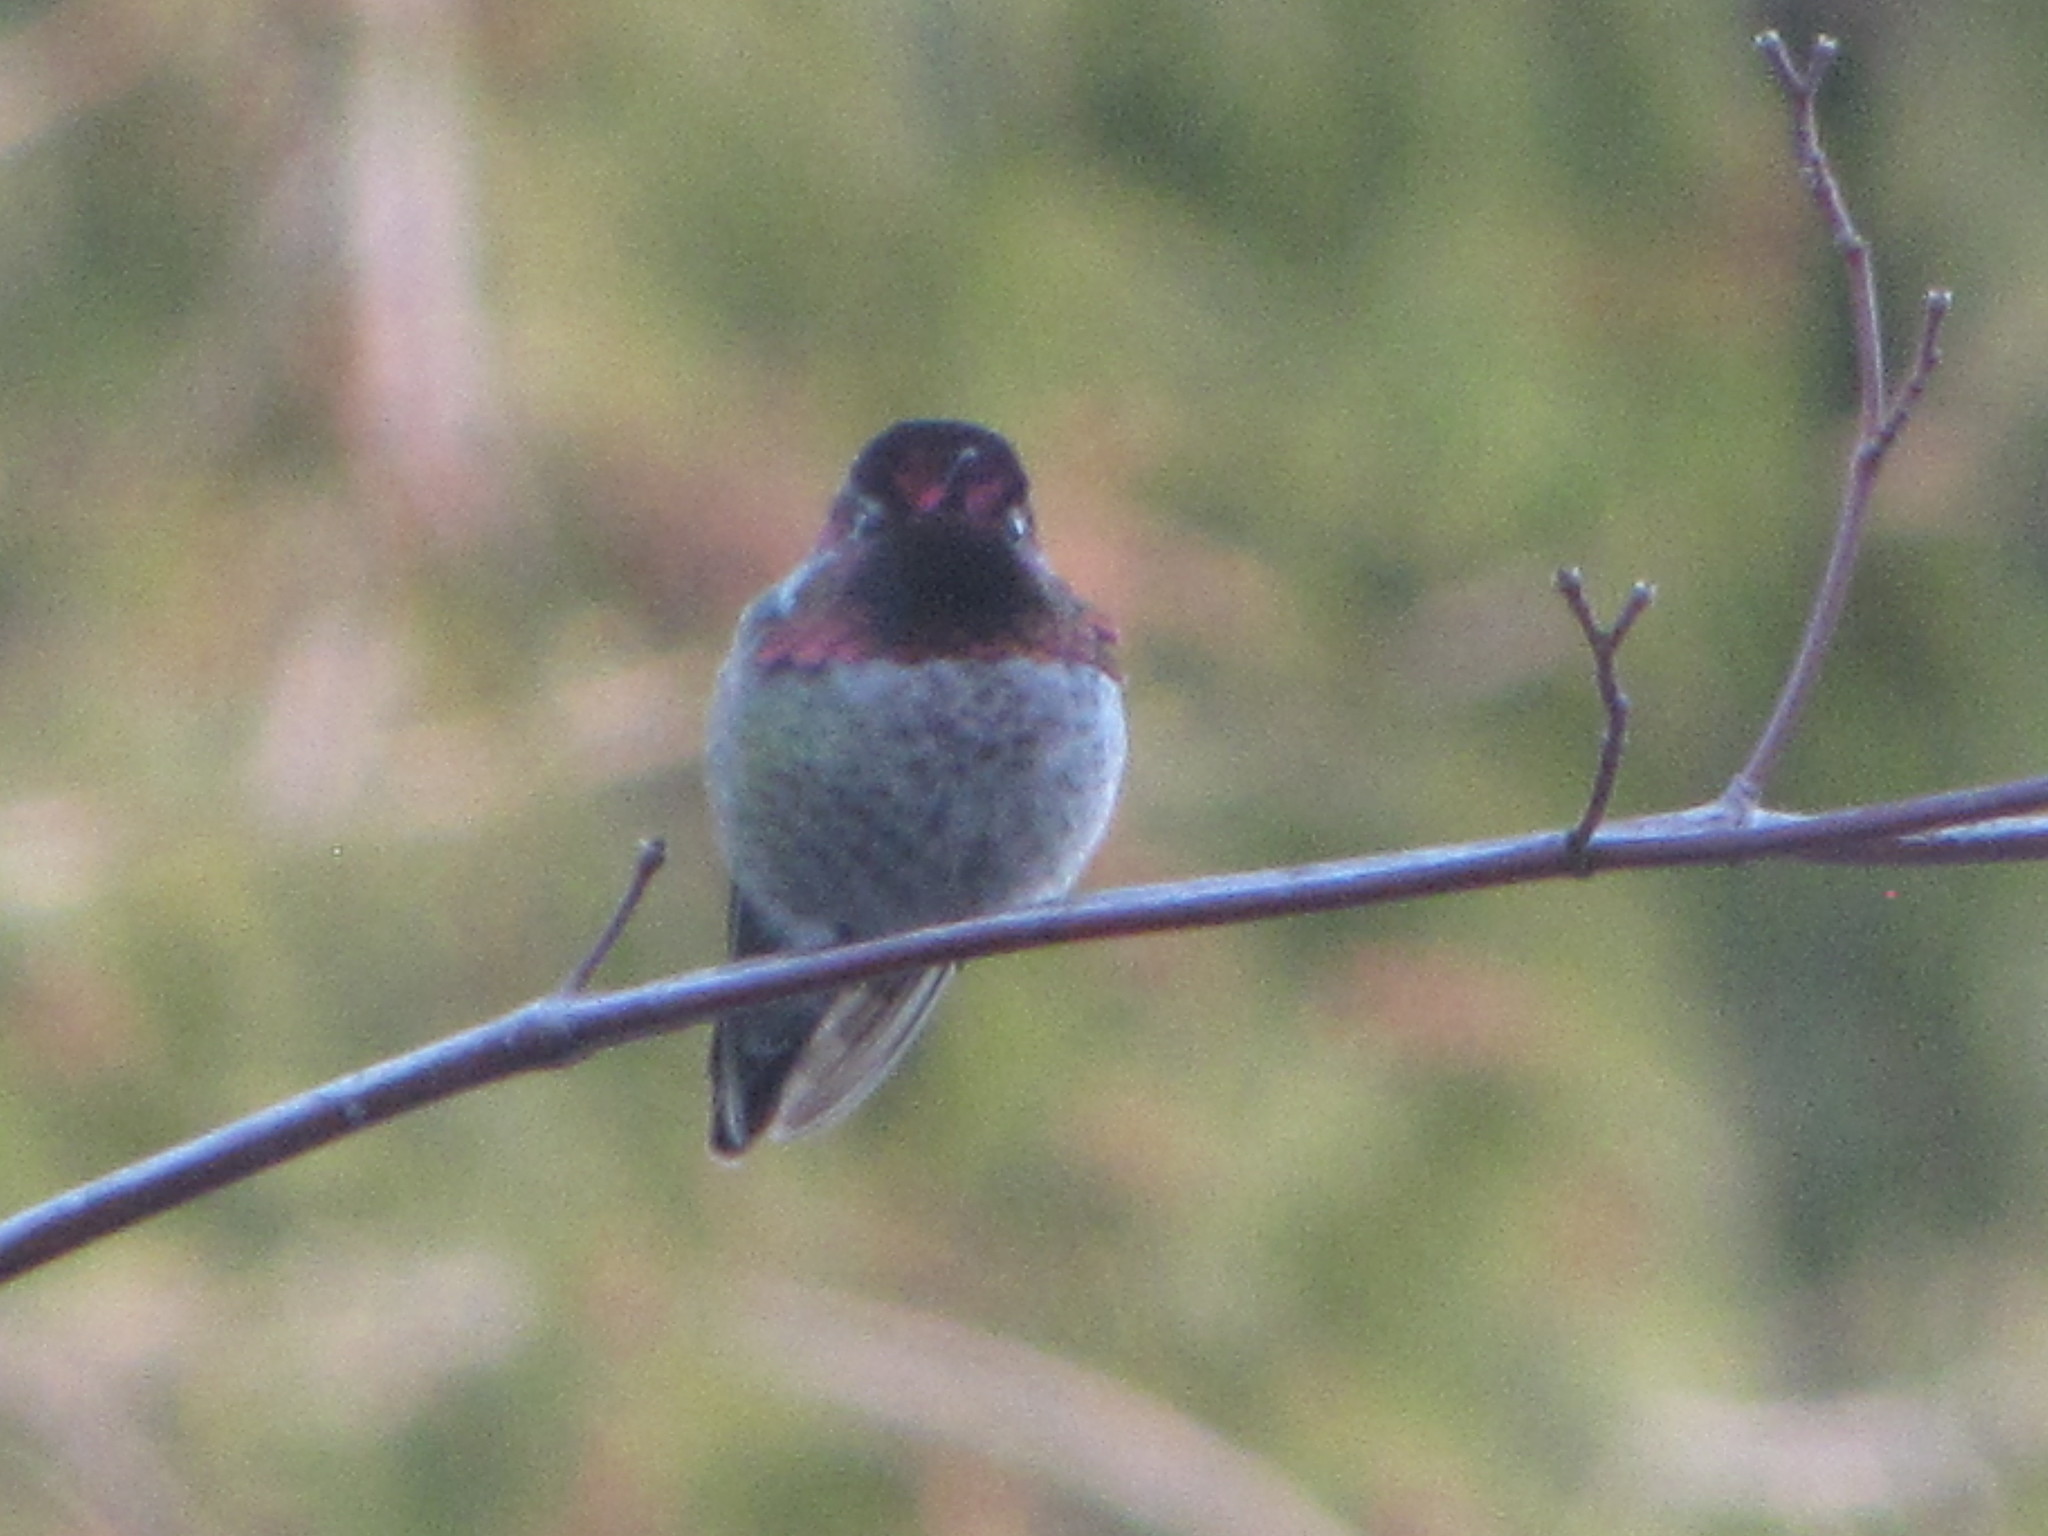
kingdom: Animalia
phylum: Chordata
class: Aves
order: Apodiformes
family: Trochilidae
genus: Calypte
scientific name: Calypte anna
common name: Anna's hummingbird
